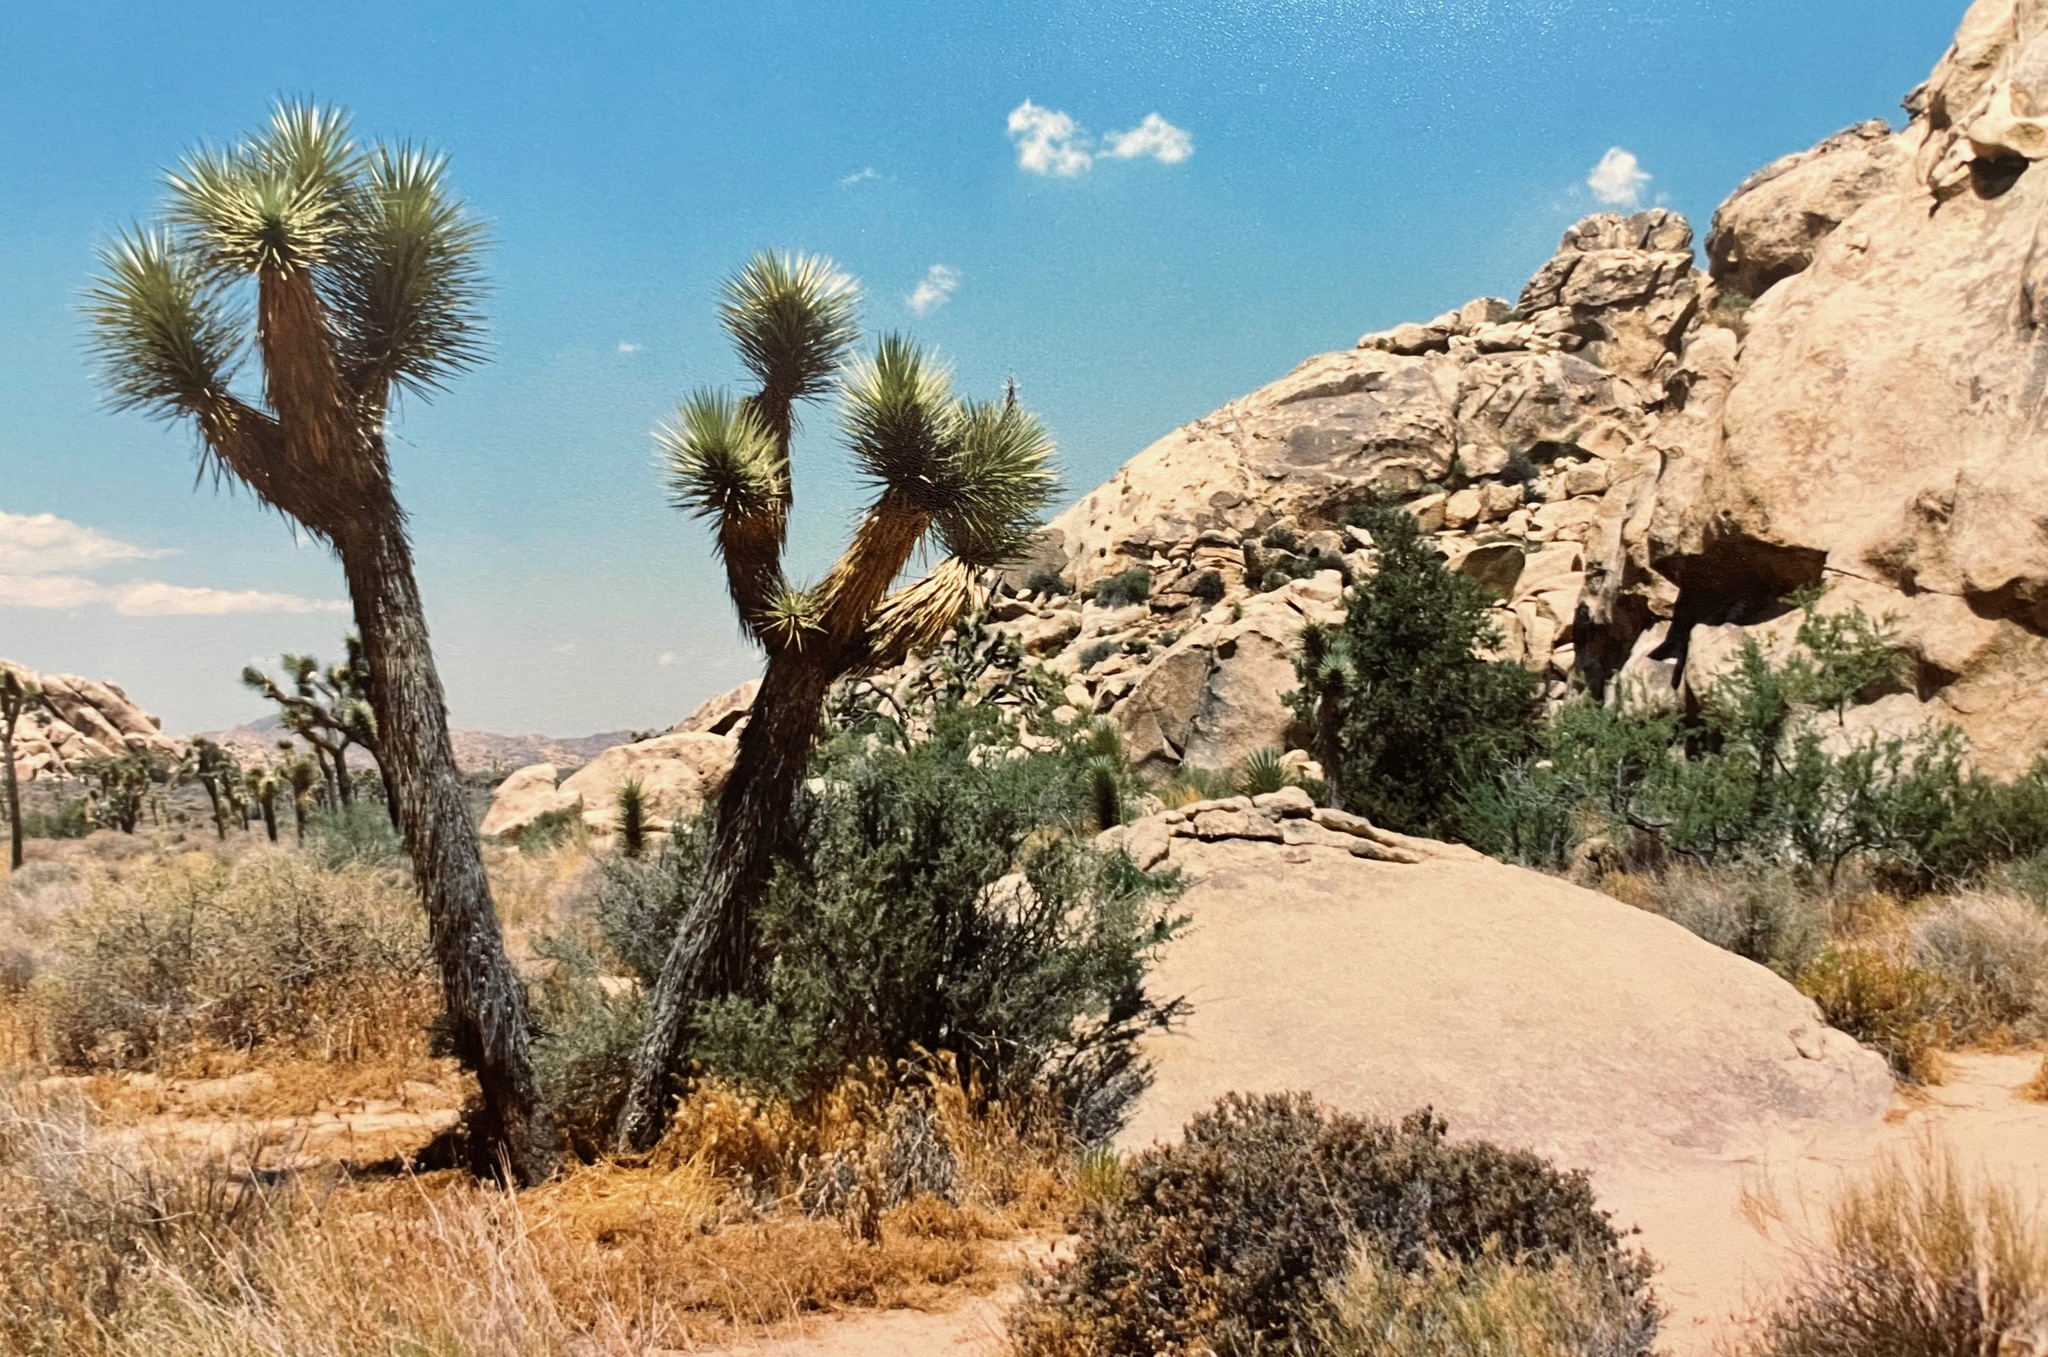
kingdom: Plantae
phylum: Tracheophyta
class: Liliopsida
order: Asparagales
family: Asparagaceae
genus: Yucca
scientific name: Yucca brevifolia
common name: Joshua tree
